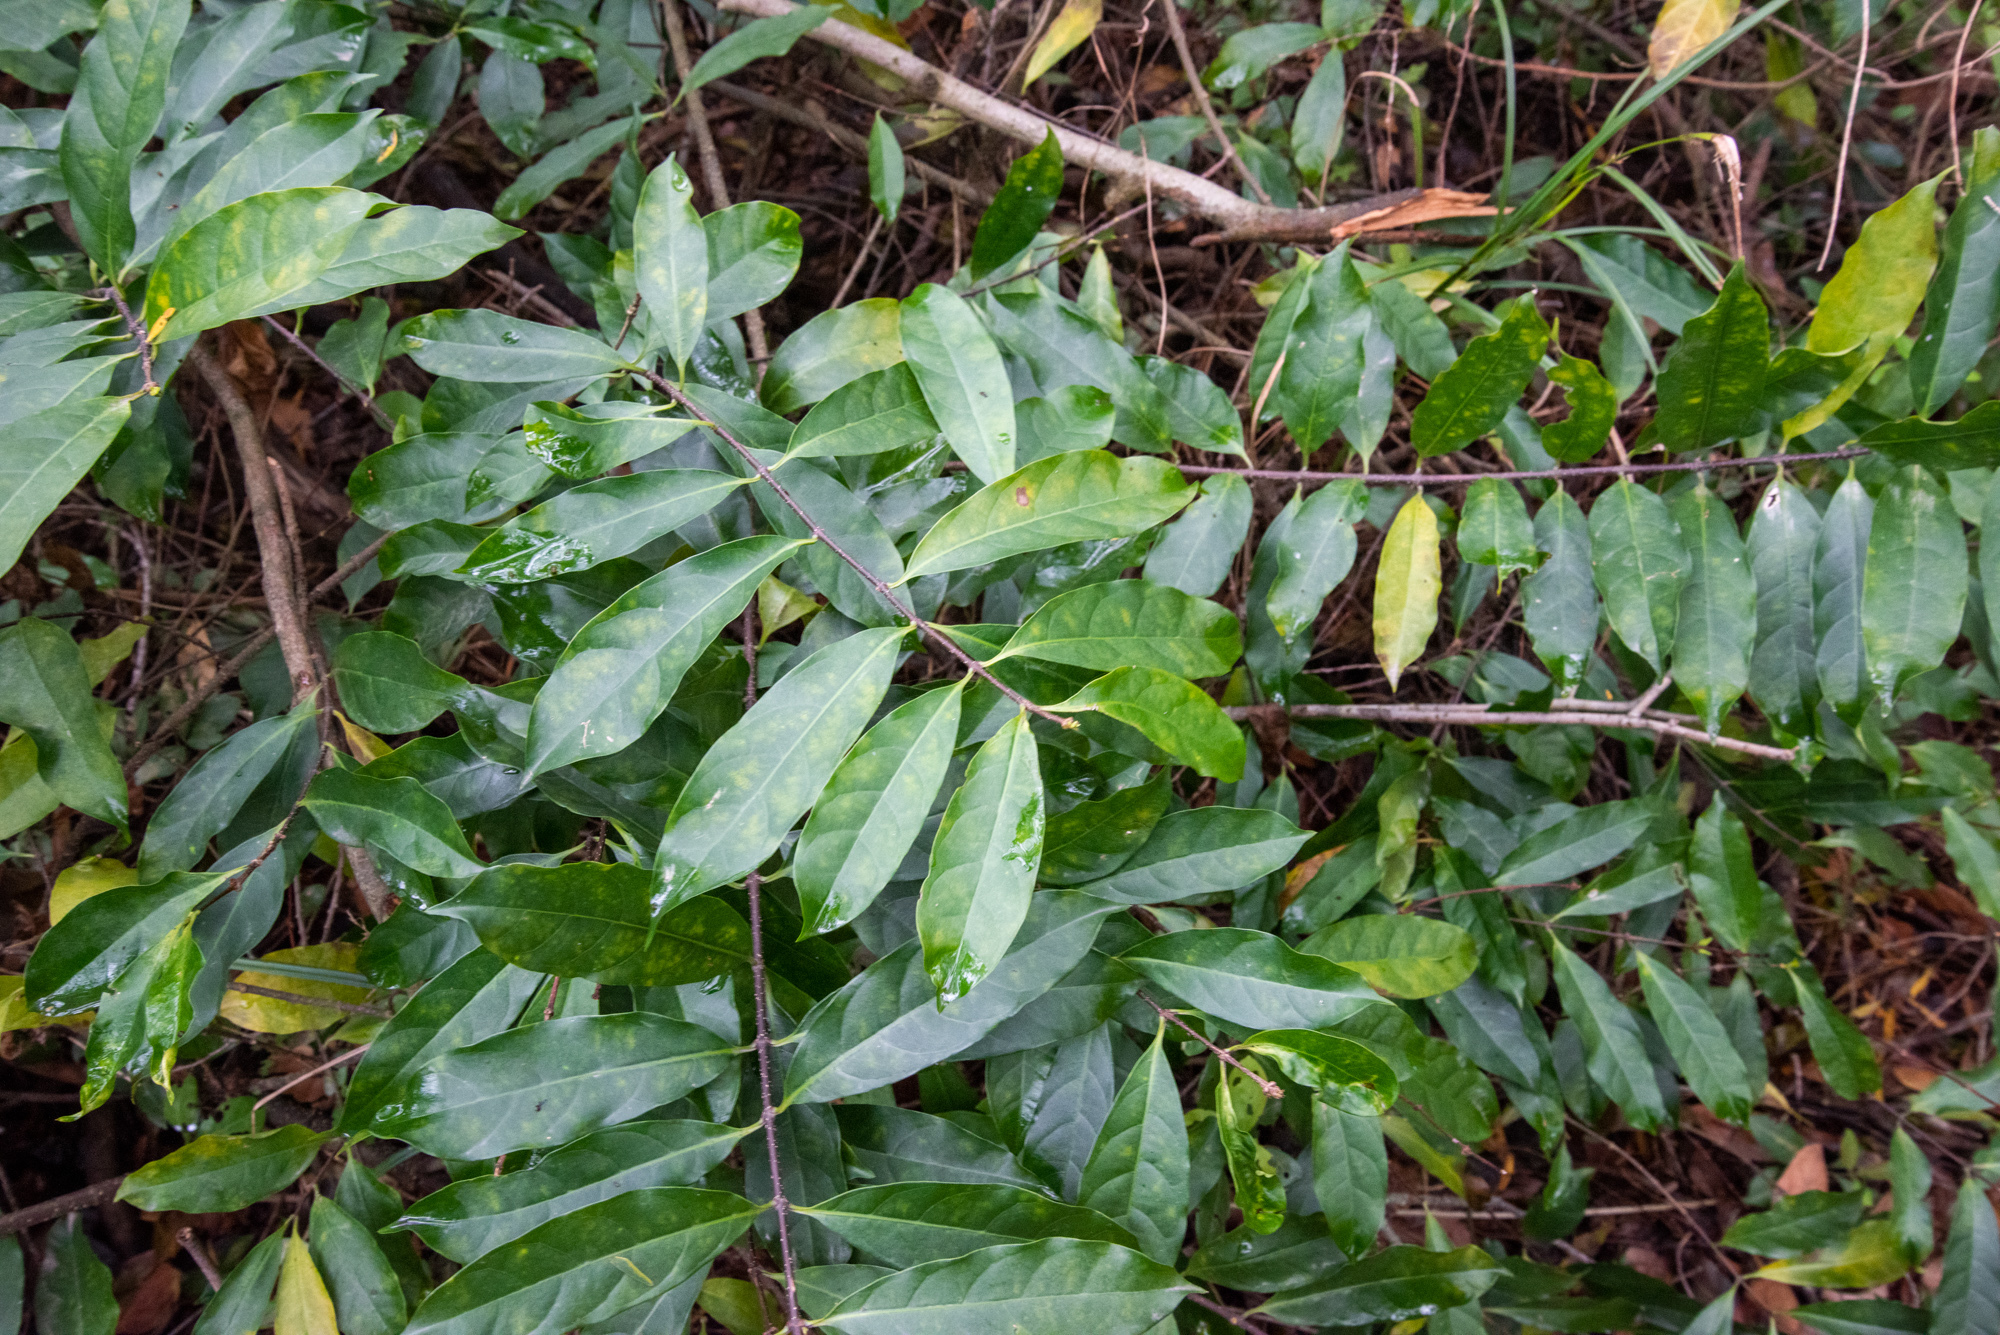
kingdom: Plantae
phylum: Tracheophyta
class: Magnoliopsida
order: Gentianales
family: Apocynaceae
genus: Strophanthus
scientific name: Strophanthus divaricatus
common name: Goat-horns
